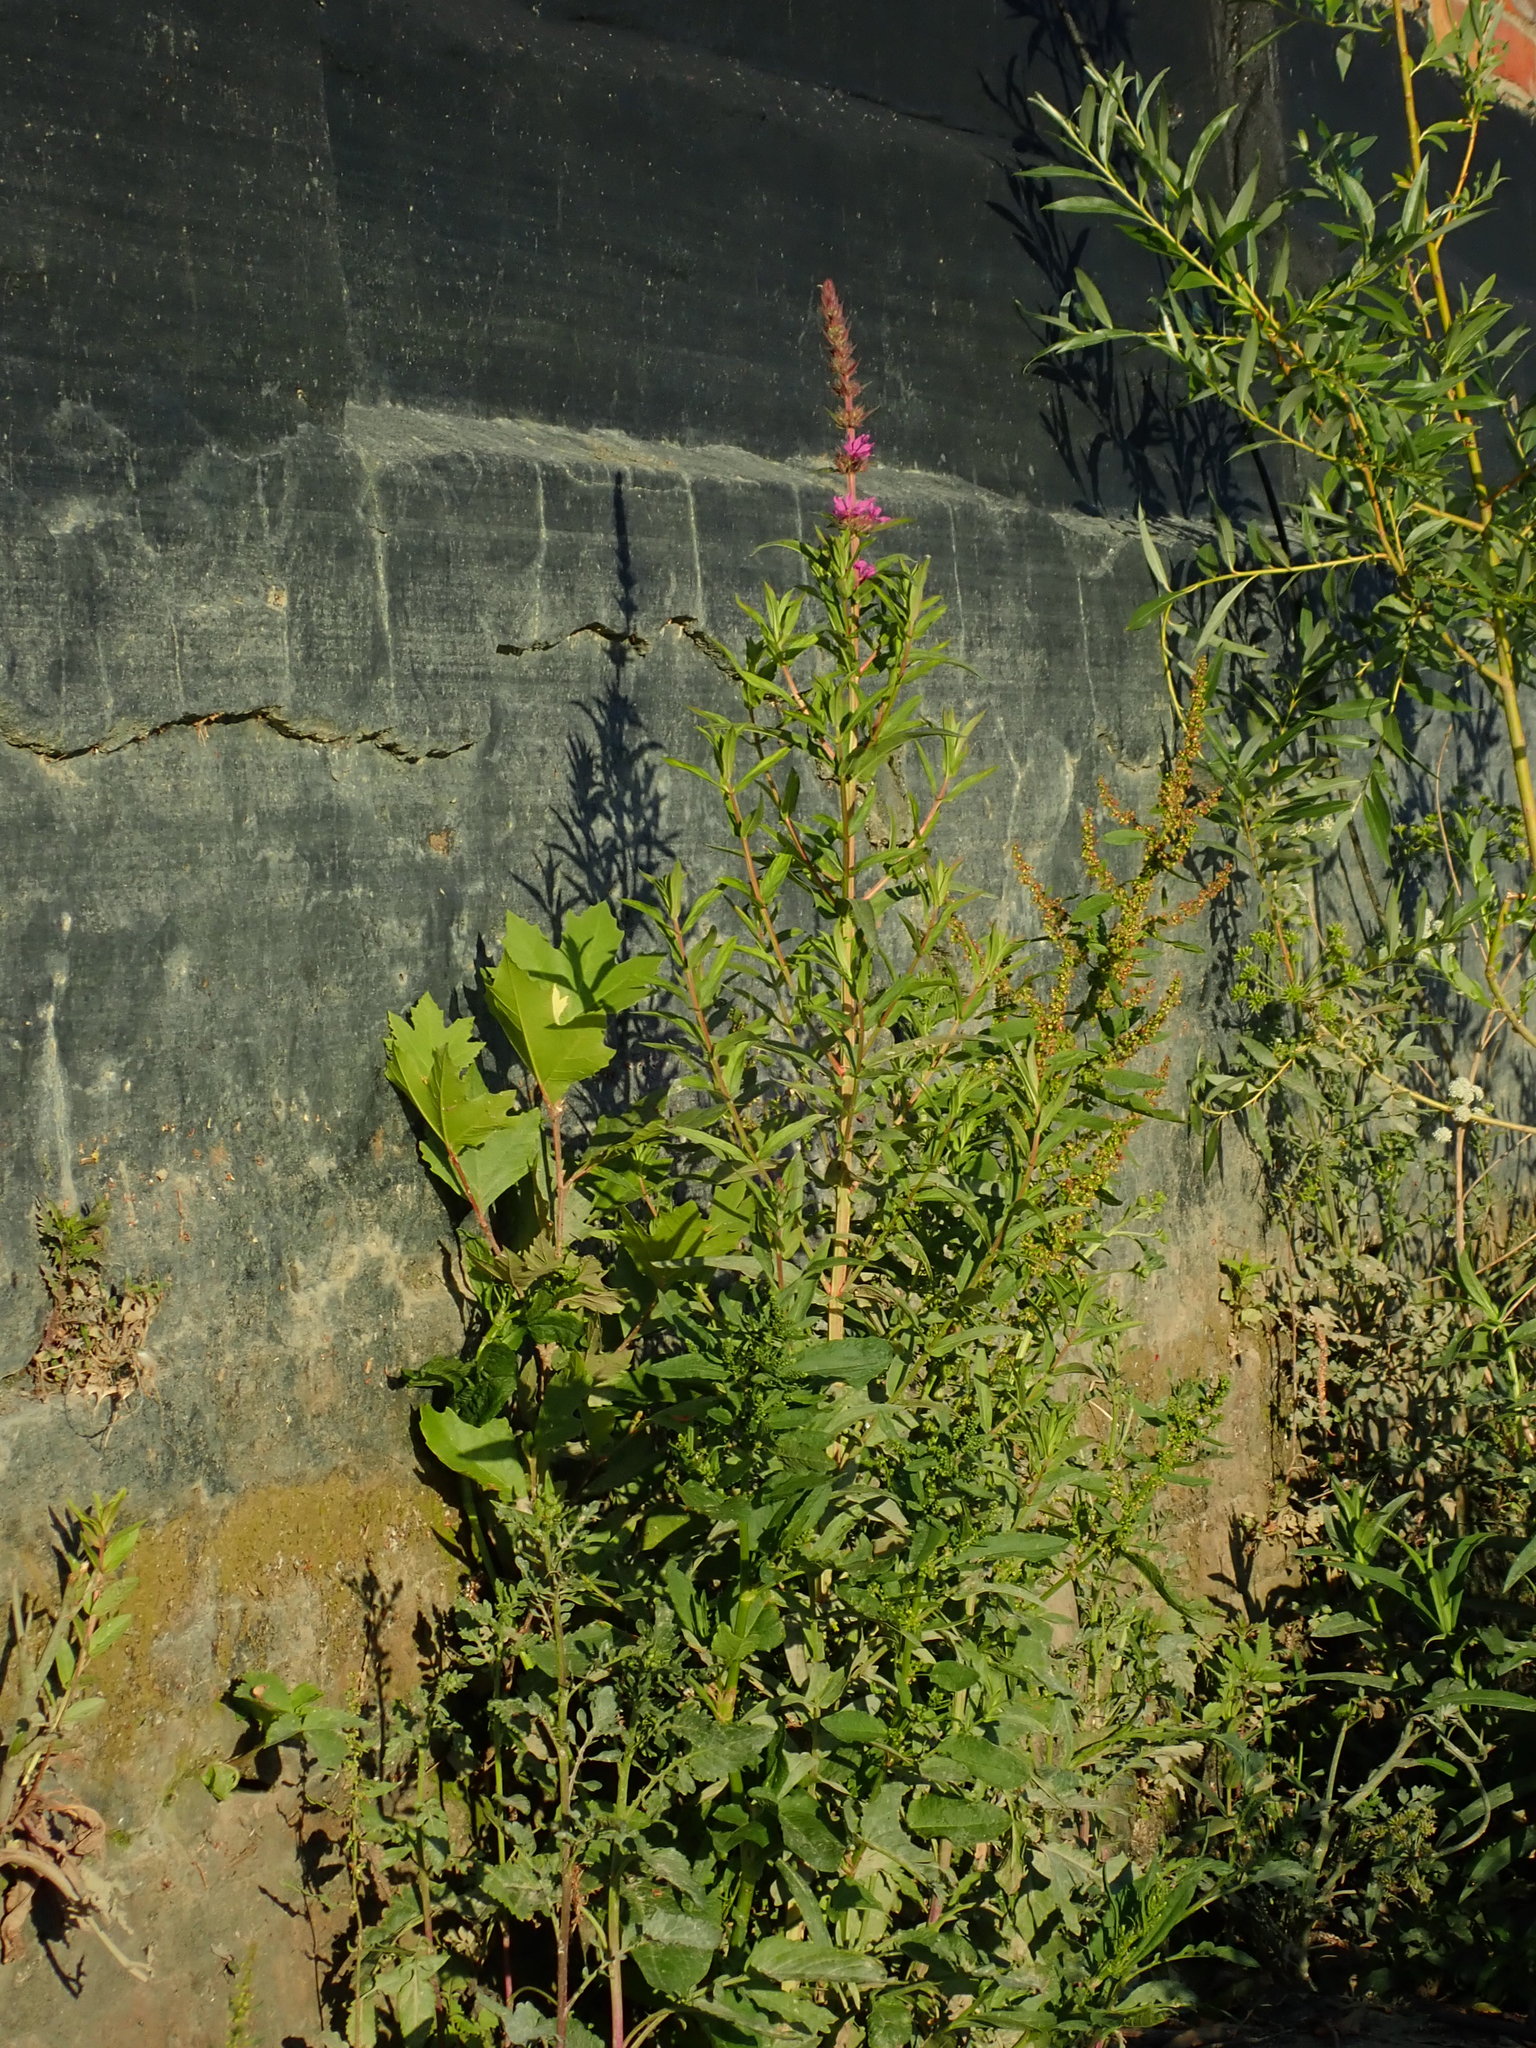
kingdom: Plantae
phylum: Tracheophyta
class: Magnoliopsida
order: Myrtales
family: Lythraceae
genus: Lythrum
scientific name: Lythrum salicaria
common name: Purple loosestrife
